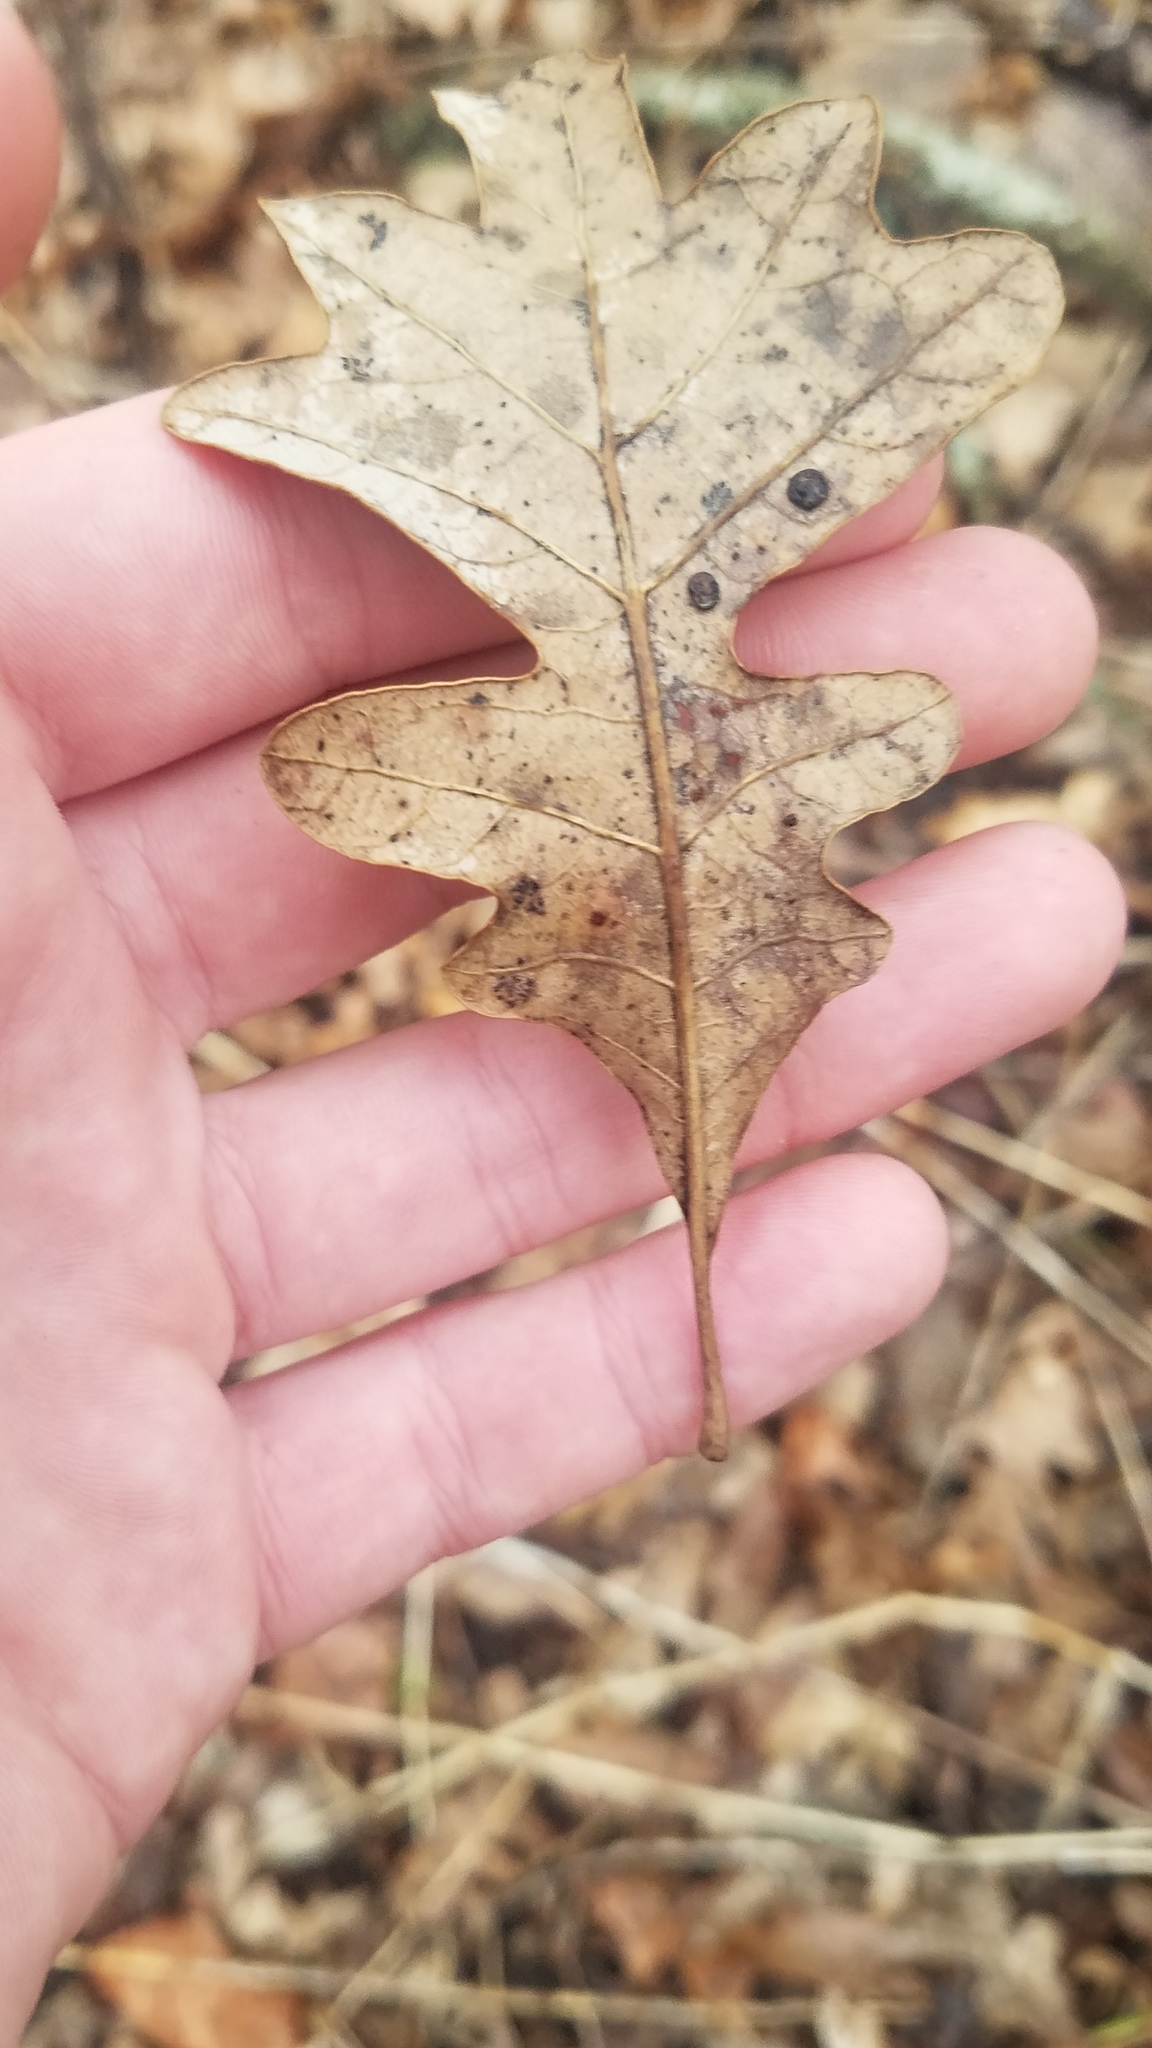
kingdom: Plantae
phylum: Tracheophyta
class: Magnoliopsida
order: Fagales
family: Fagaceae
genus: Quercus
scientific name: Quercus alba
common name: White oak
